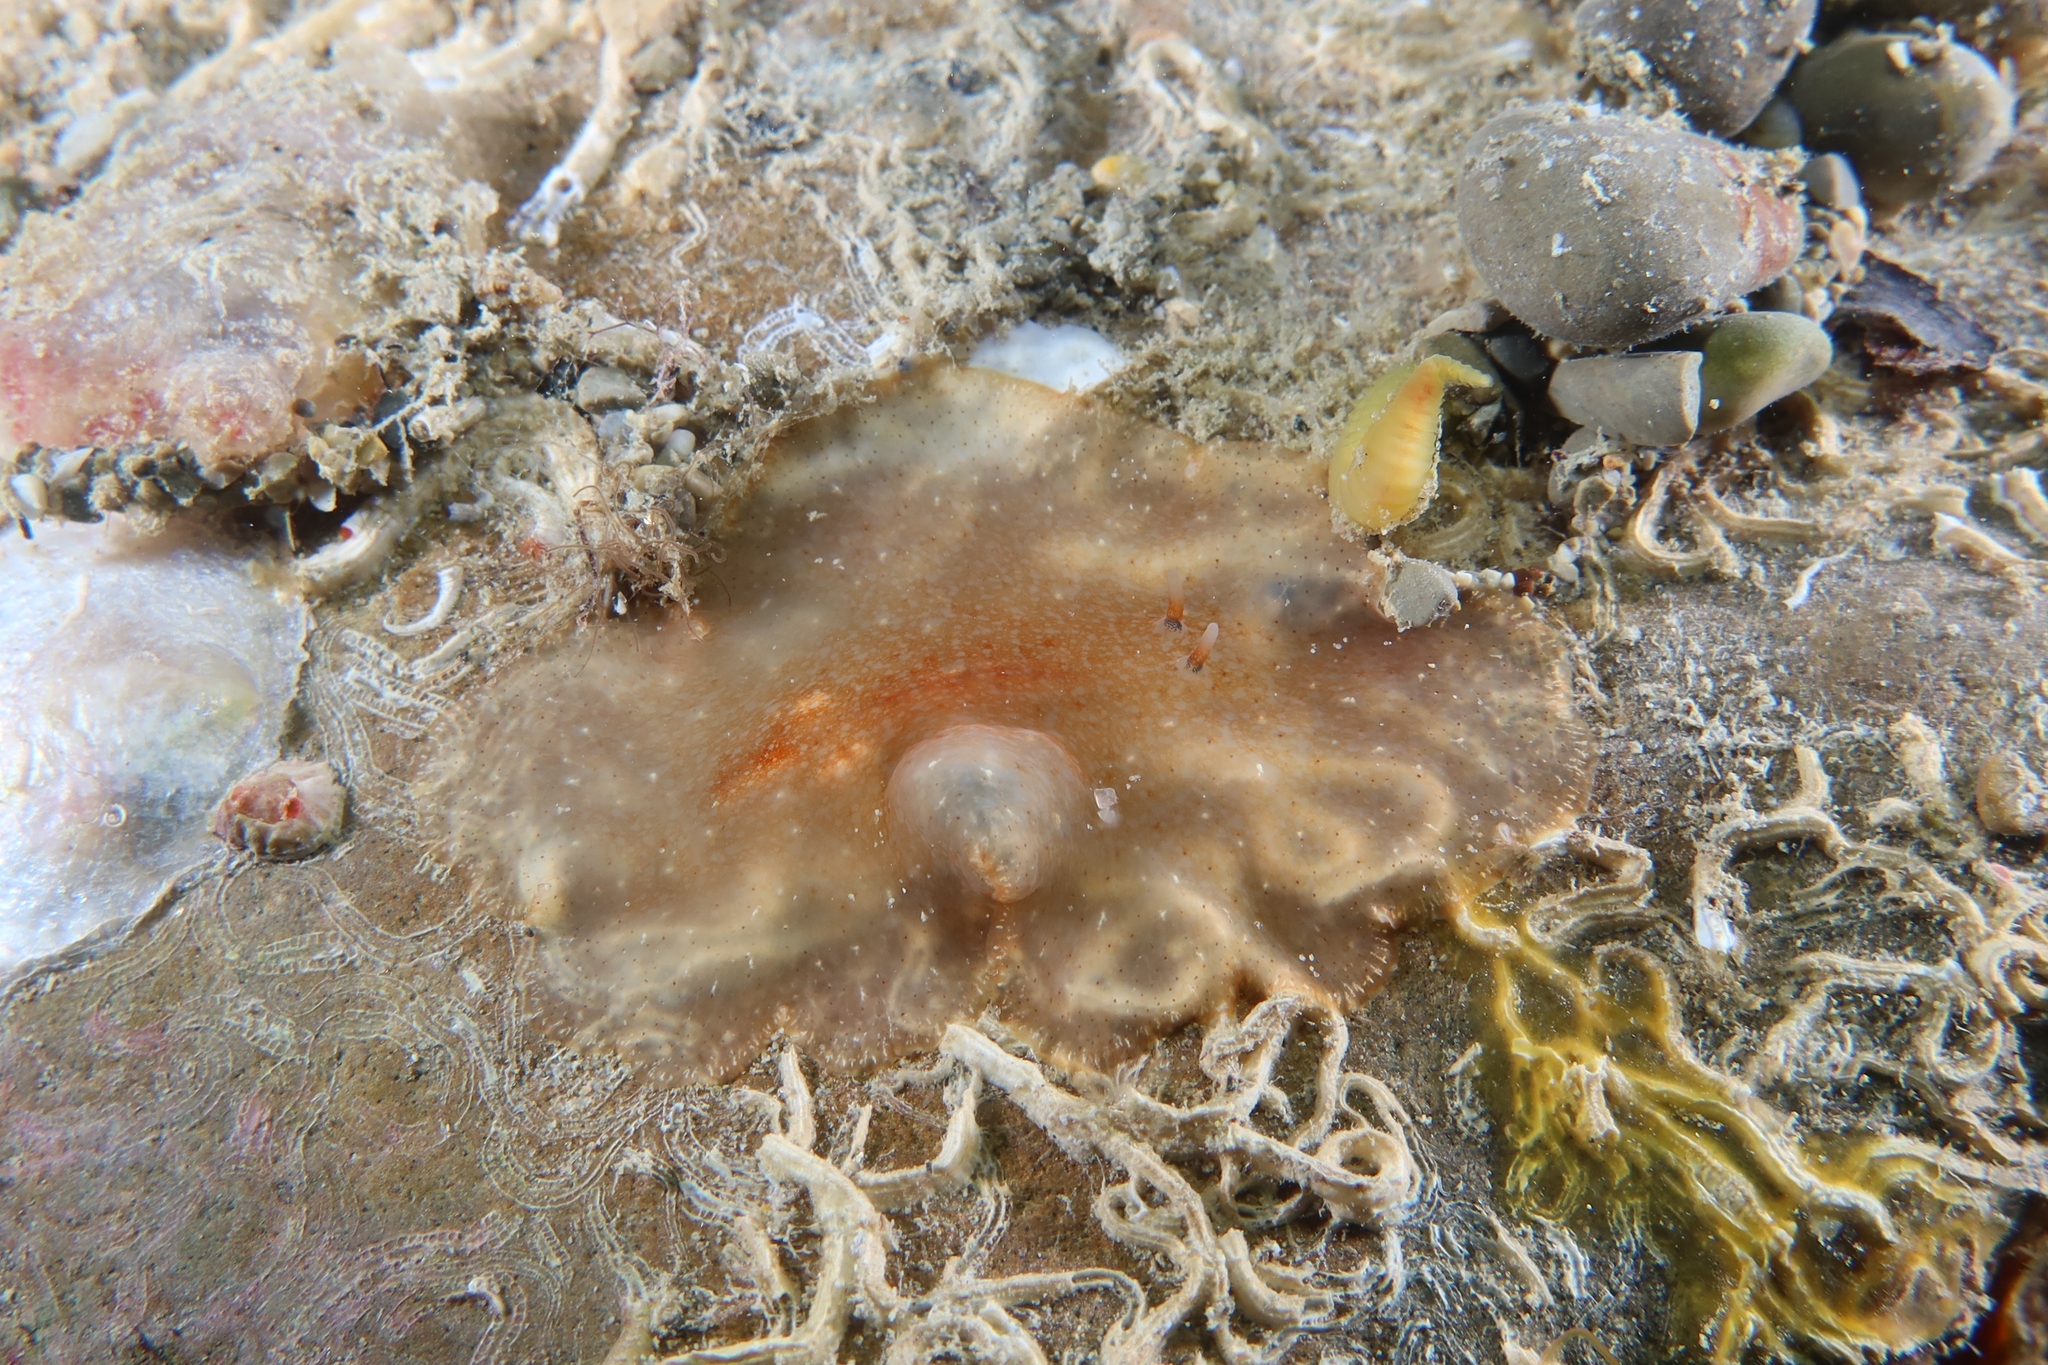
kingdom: Animalia
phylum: Platyhelminthes
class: Turbellaria
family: Planoceridae
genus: Planocera
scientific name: Planocera ceratommata
